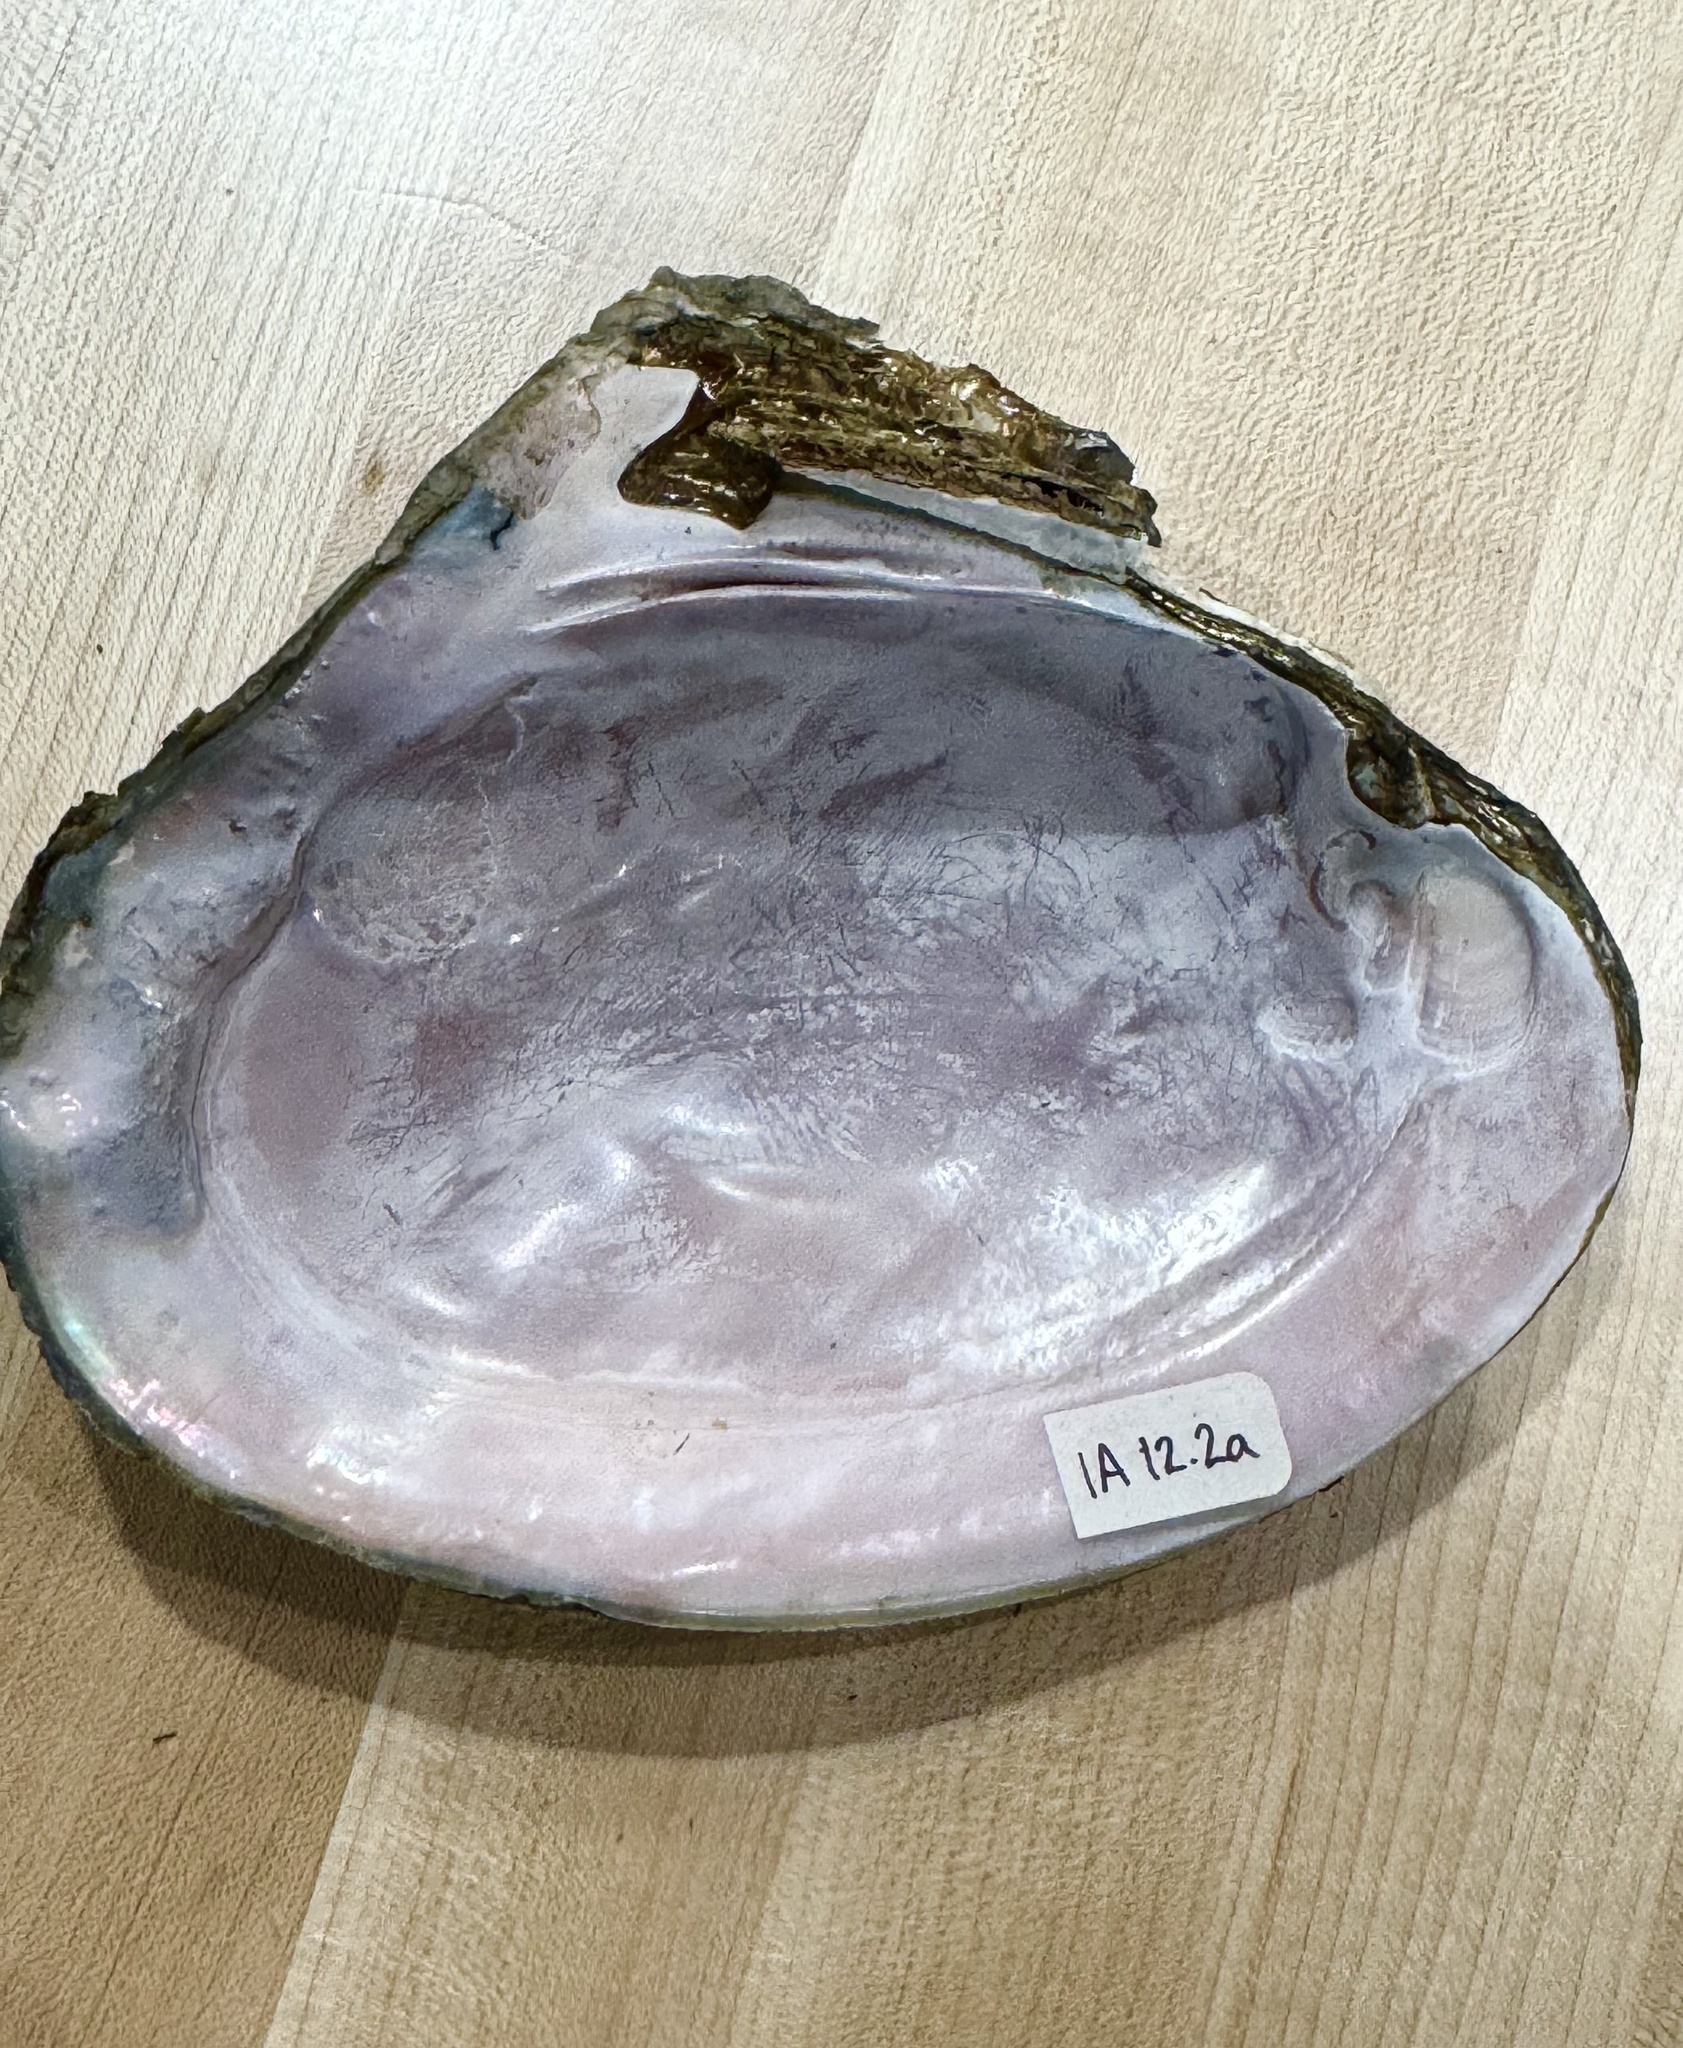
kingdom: Animalia
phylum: Mollusca
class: Bivalvia
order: Unionida
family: Unionidae
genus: Potamilus
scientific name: Potamilus alatus
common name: Pink heelsplitter
